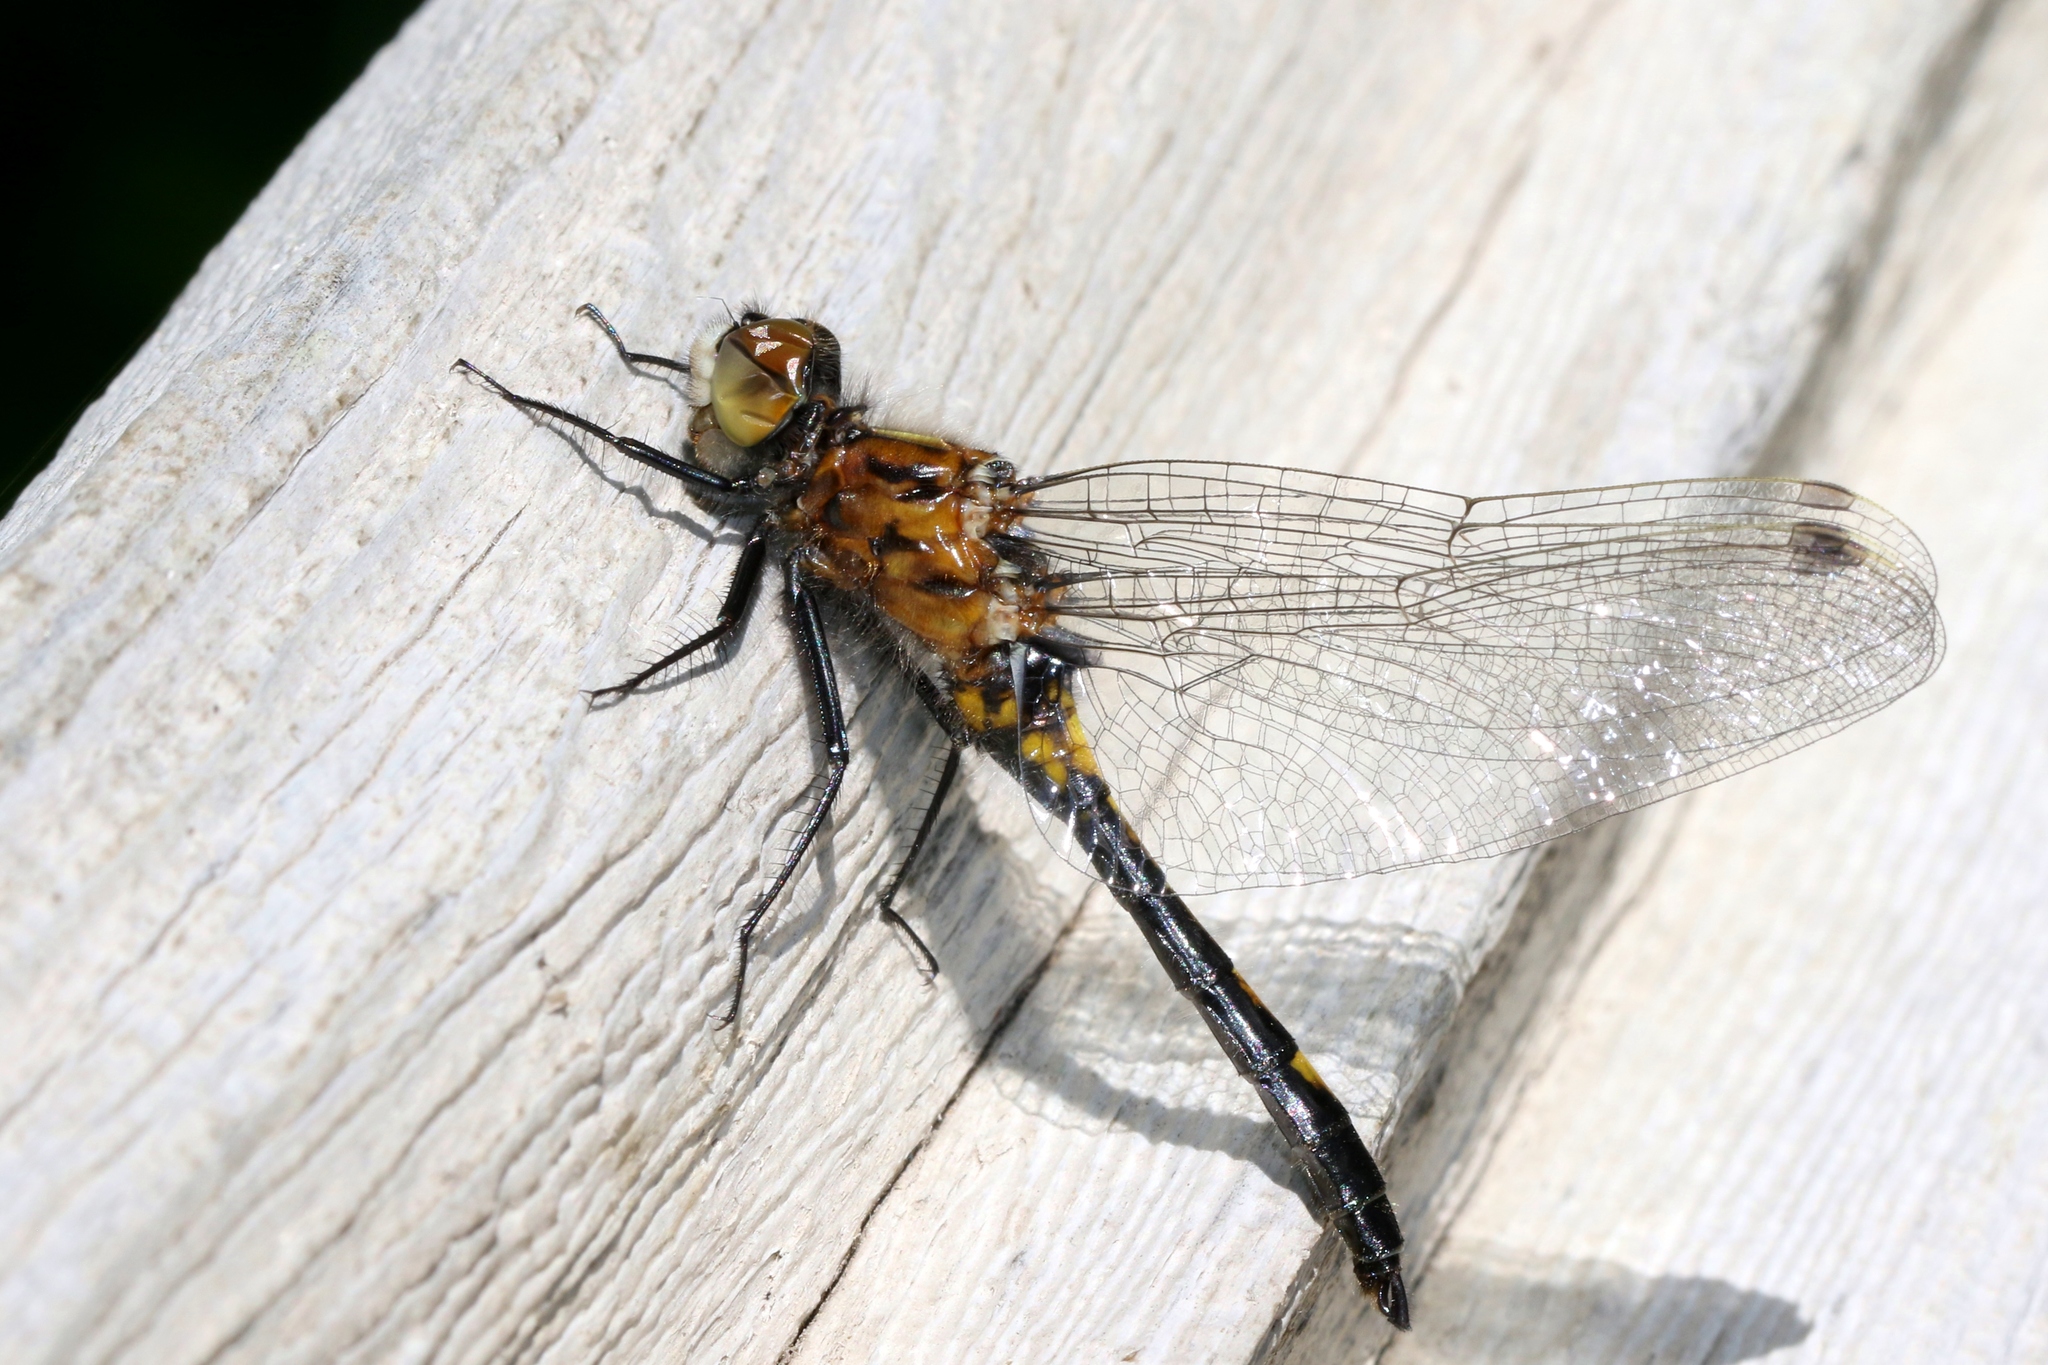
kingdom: Animalia
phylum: Arthropoda
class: Insecta
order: Odonata
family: Libellulidae
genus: Leucorrhinia
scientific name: Leucorrhinia intacta
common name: Dot-tailed whiteface
